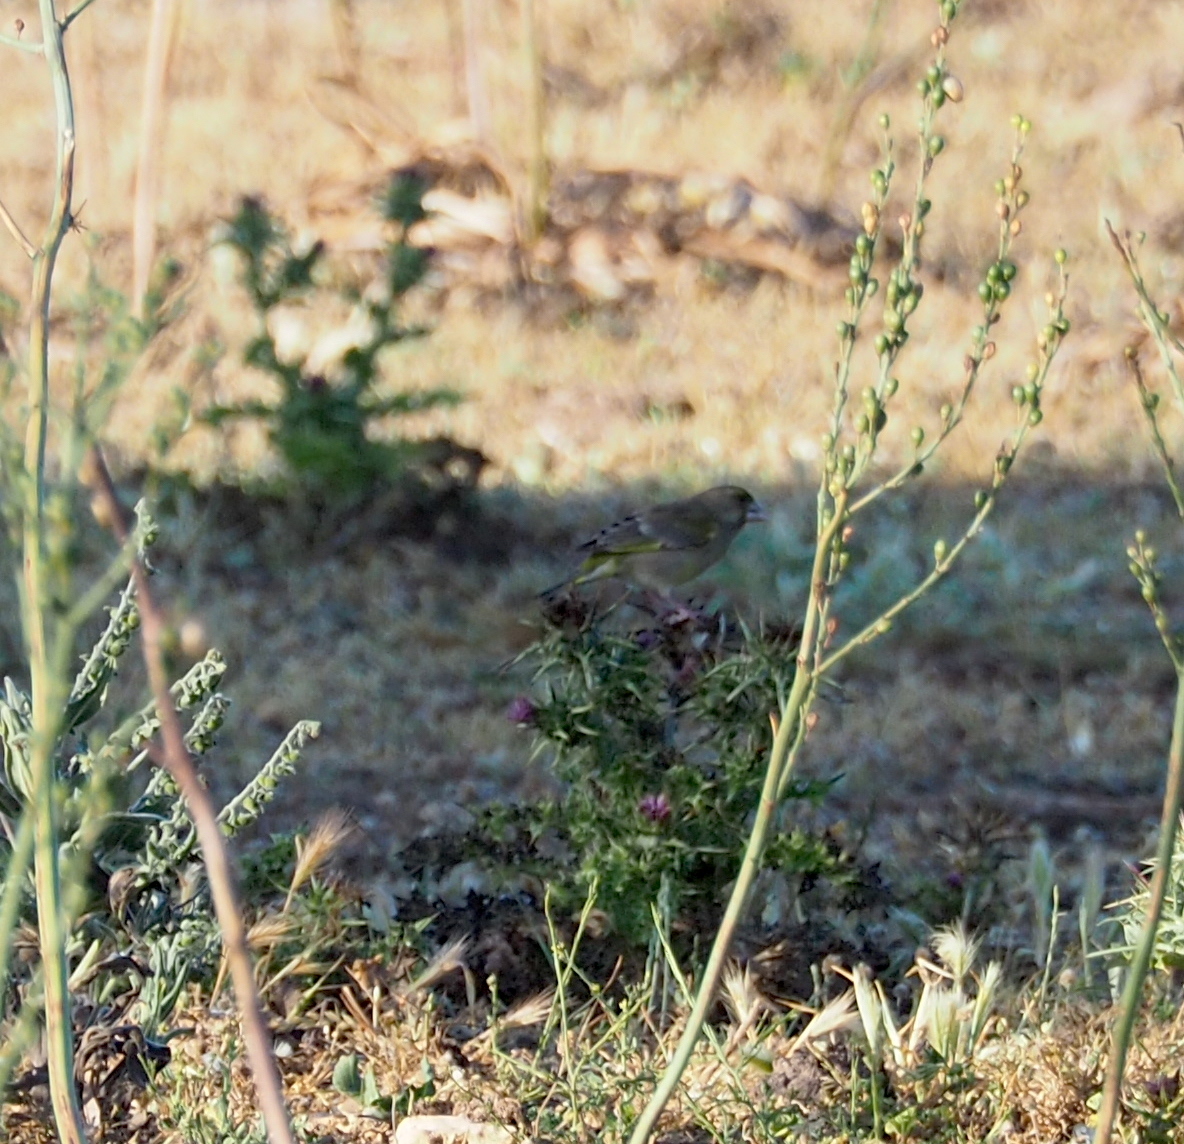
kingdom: Plantae
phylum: Tracheophyta
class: Liliopsida
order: Poales
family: Poaceae
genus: Chloris
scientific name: Chloris chloris
